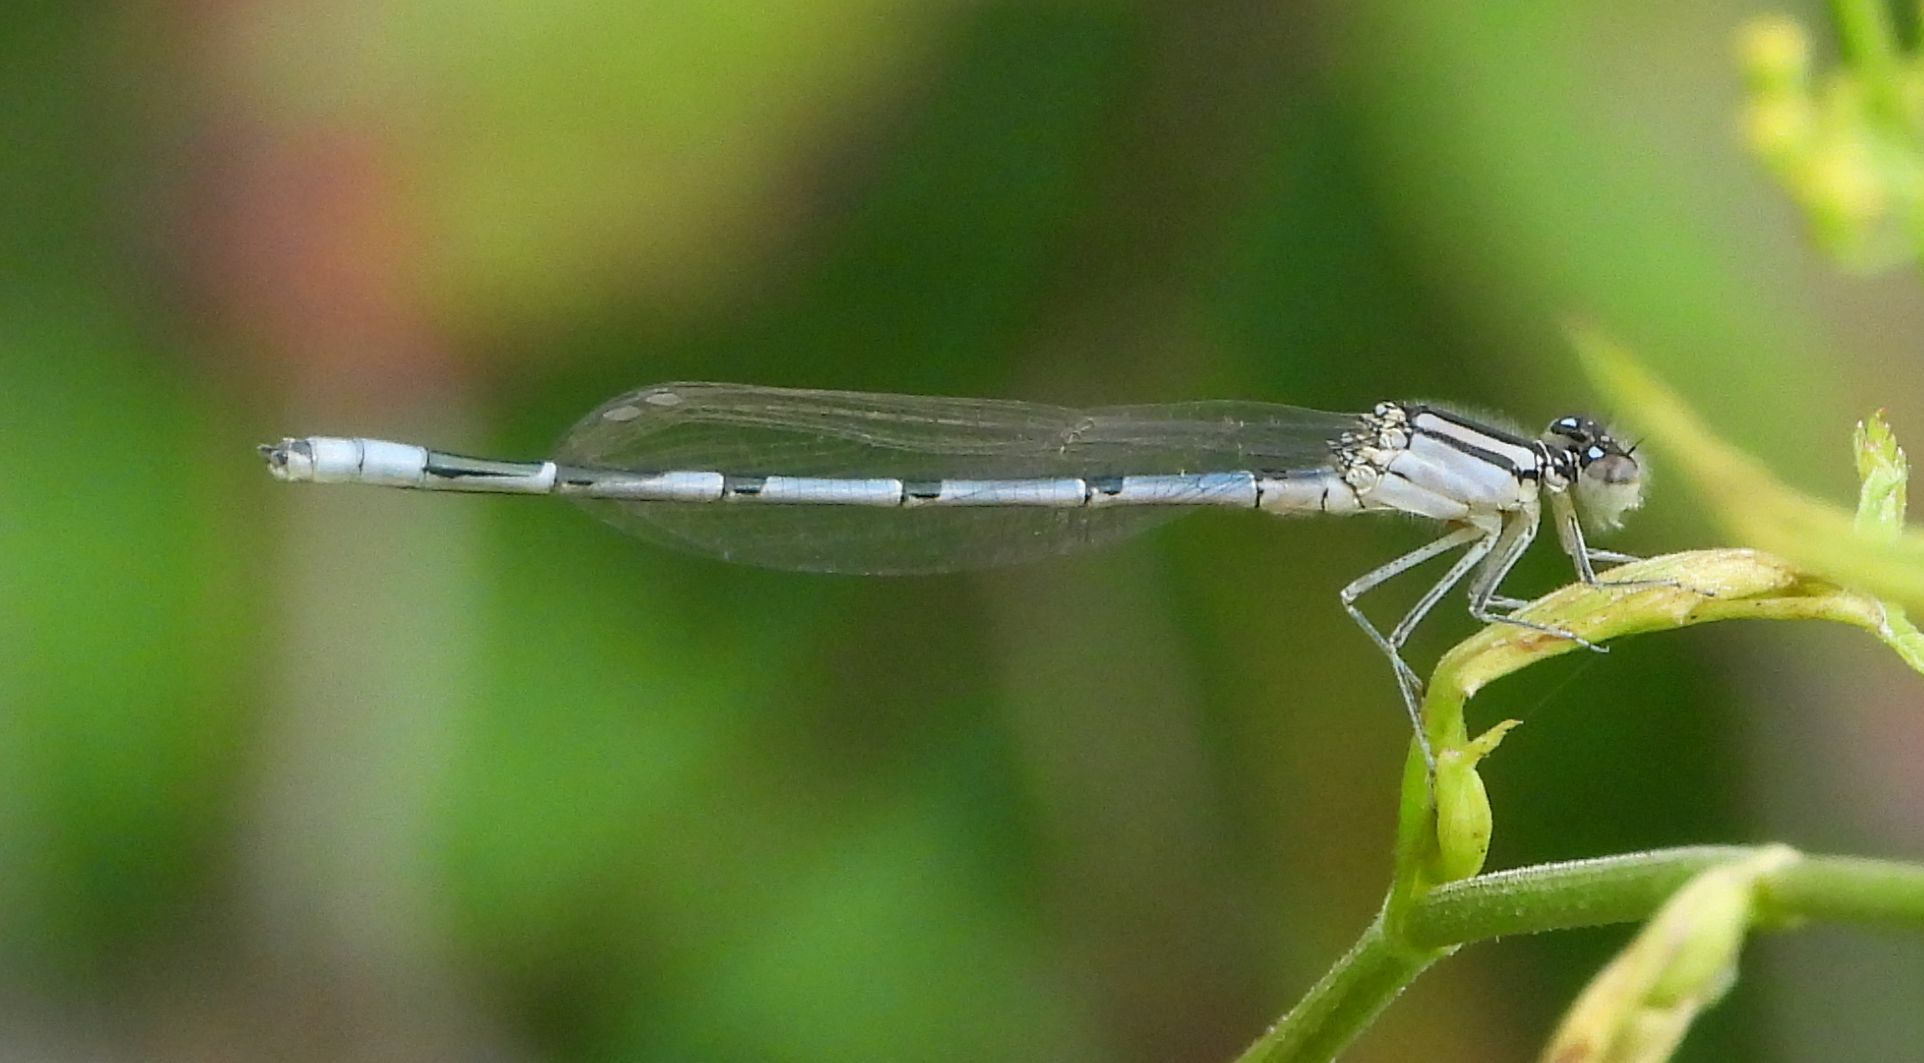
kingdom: Animalia
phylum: Arthropoda
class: Insecta
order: Odonata
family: Coenagrionidae
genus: Enallagma
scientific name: Enallagma civile
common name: Damselfly
